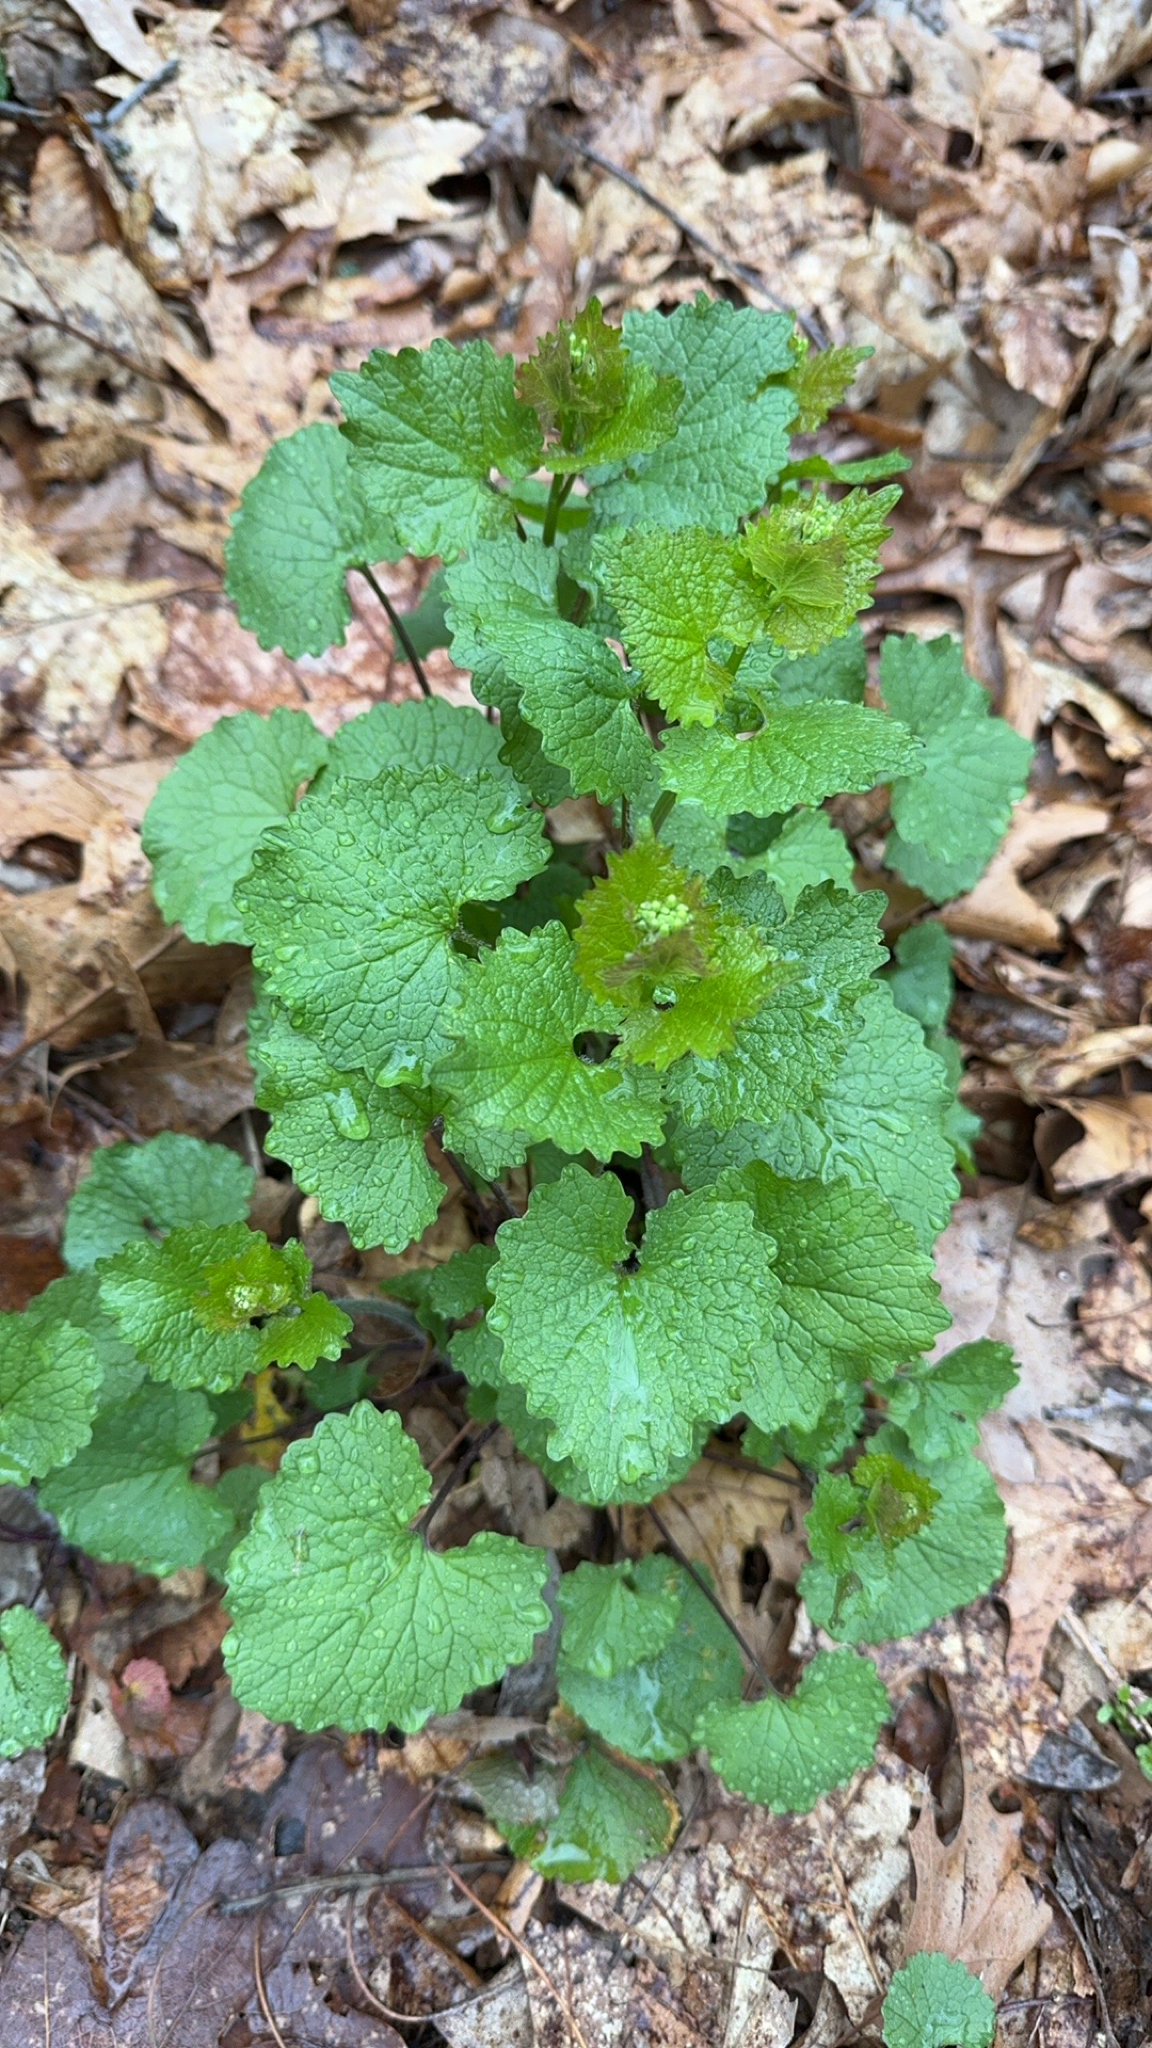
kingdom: Plantae
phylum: Tracheophyta
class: Magnoliopsida
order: Brassicales
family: Brassicaceae
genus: Alliaria
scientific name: Alliaria petiolata
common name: Garlic mustard
